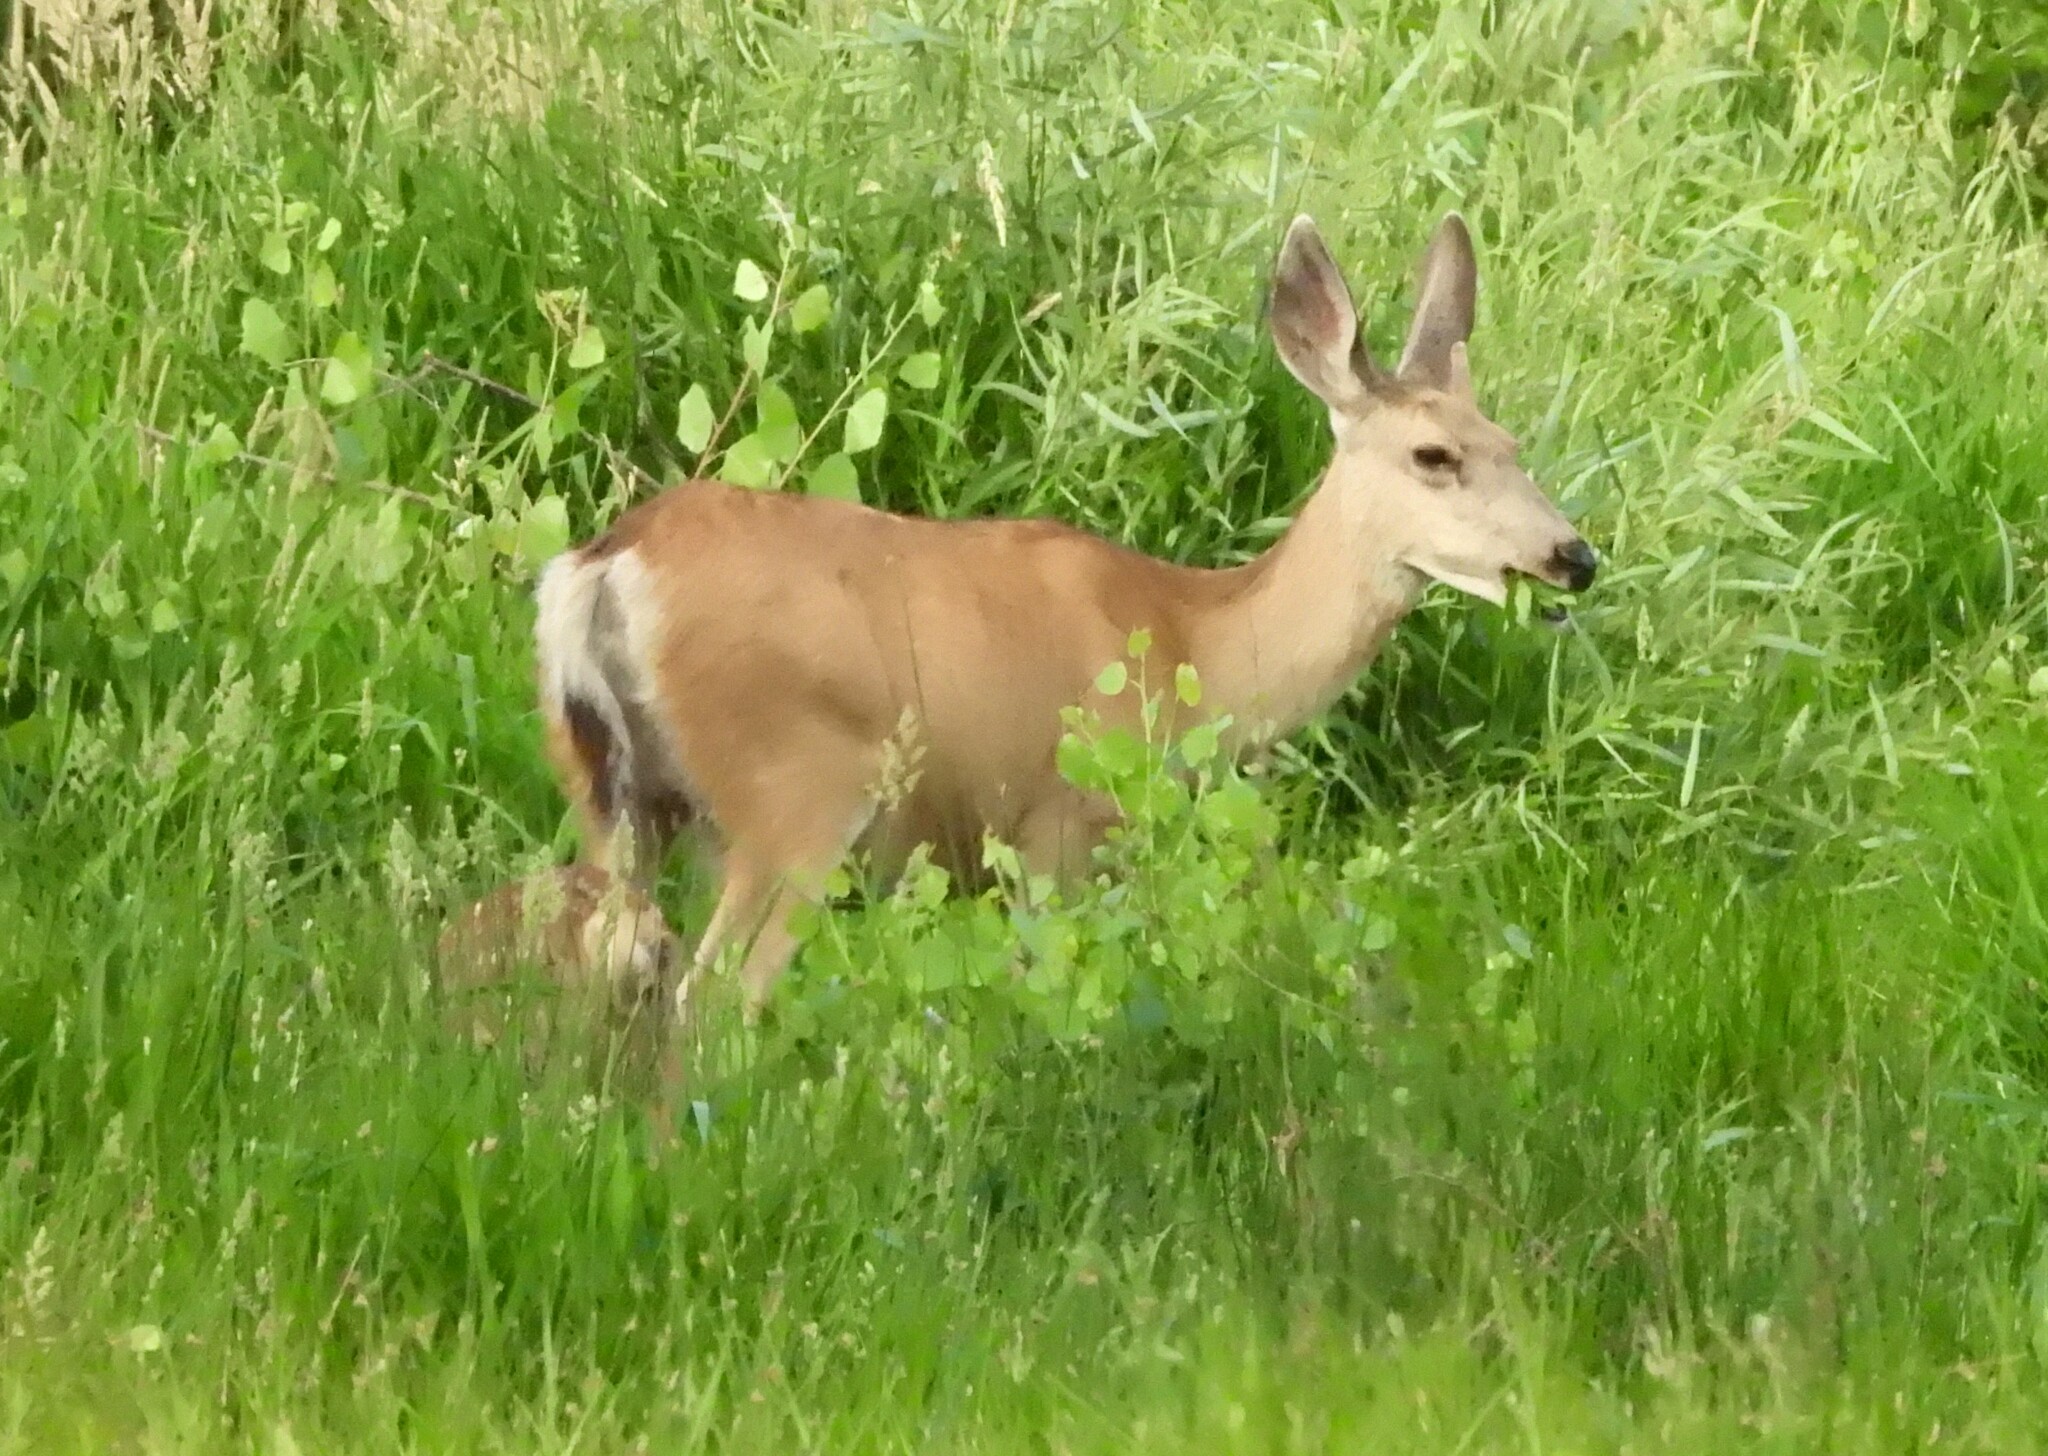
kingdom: Animalia
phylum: Chordata
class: Mammalia
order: Artiodactyla
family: Cervidae
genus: Odocoileus
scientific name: Odocoileus hemionus
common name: Mule deer
